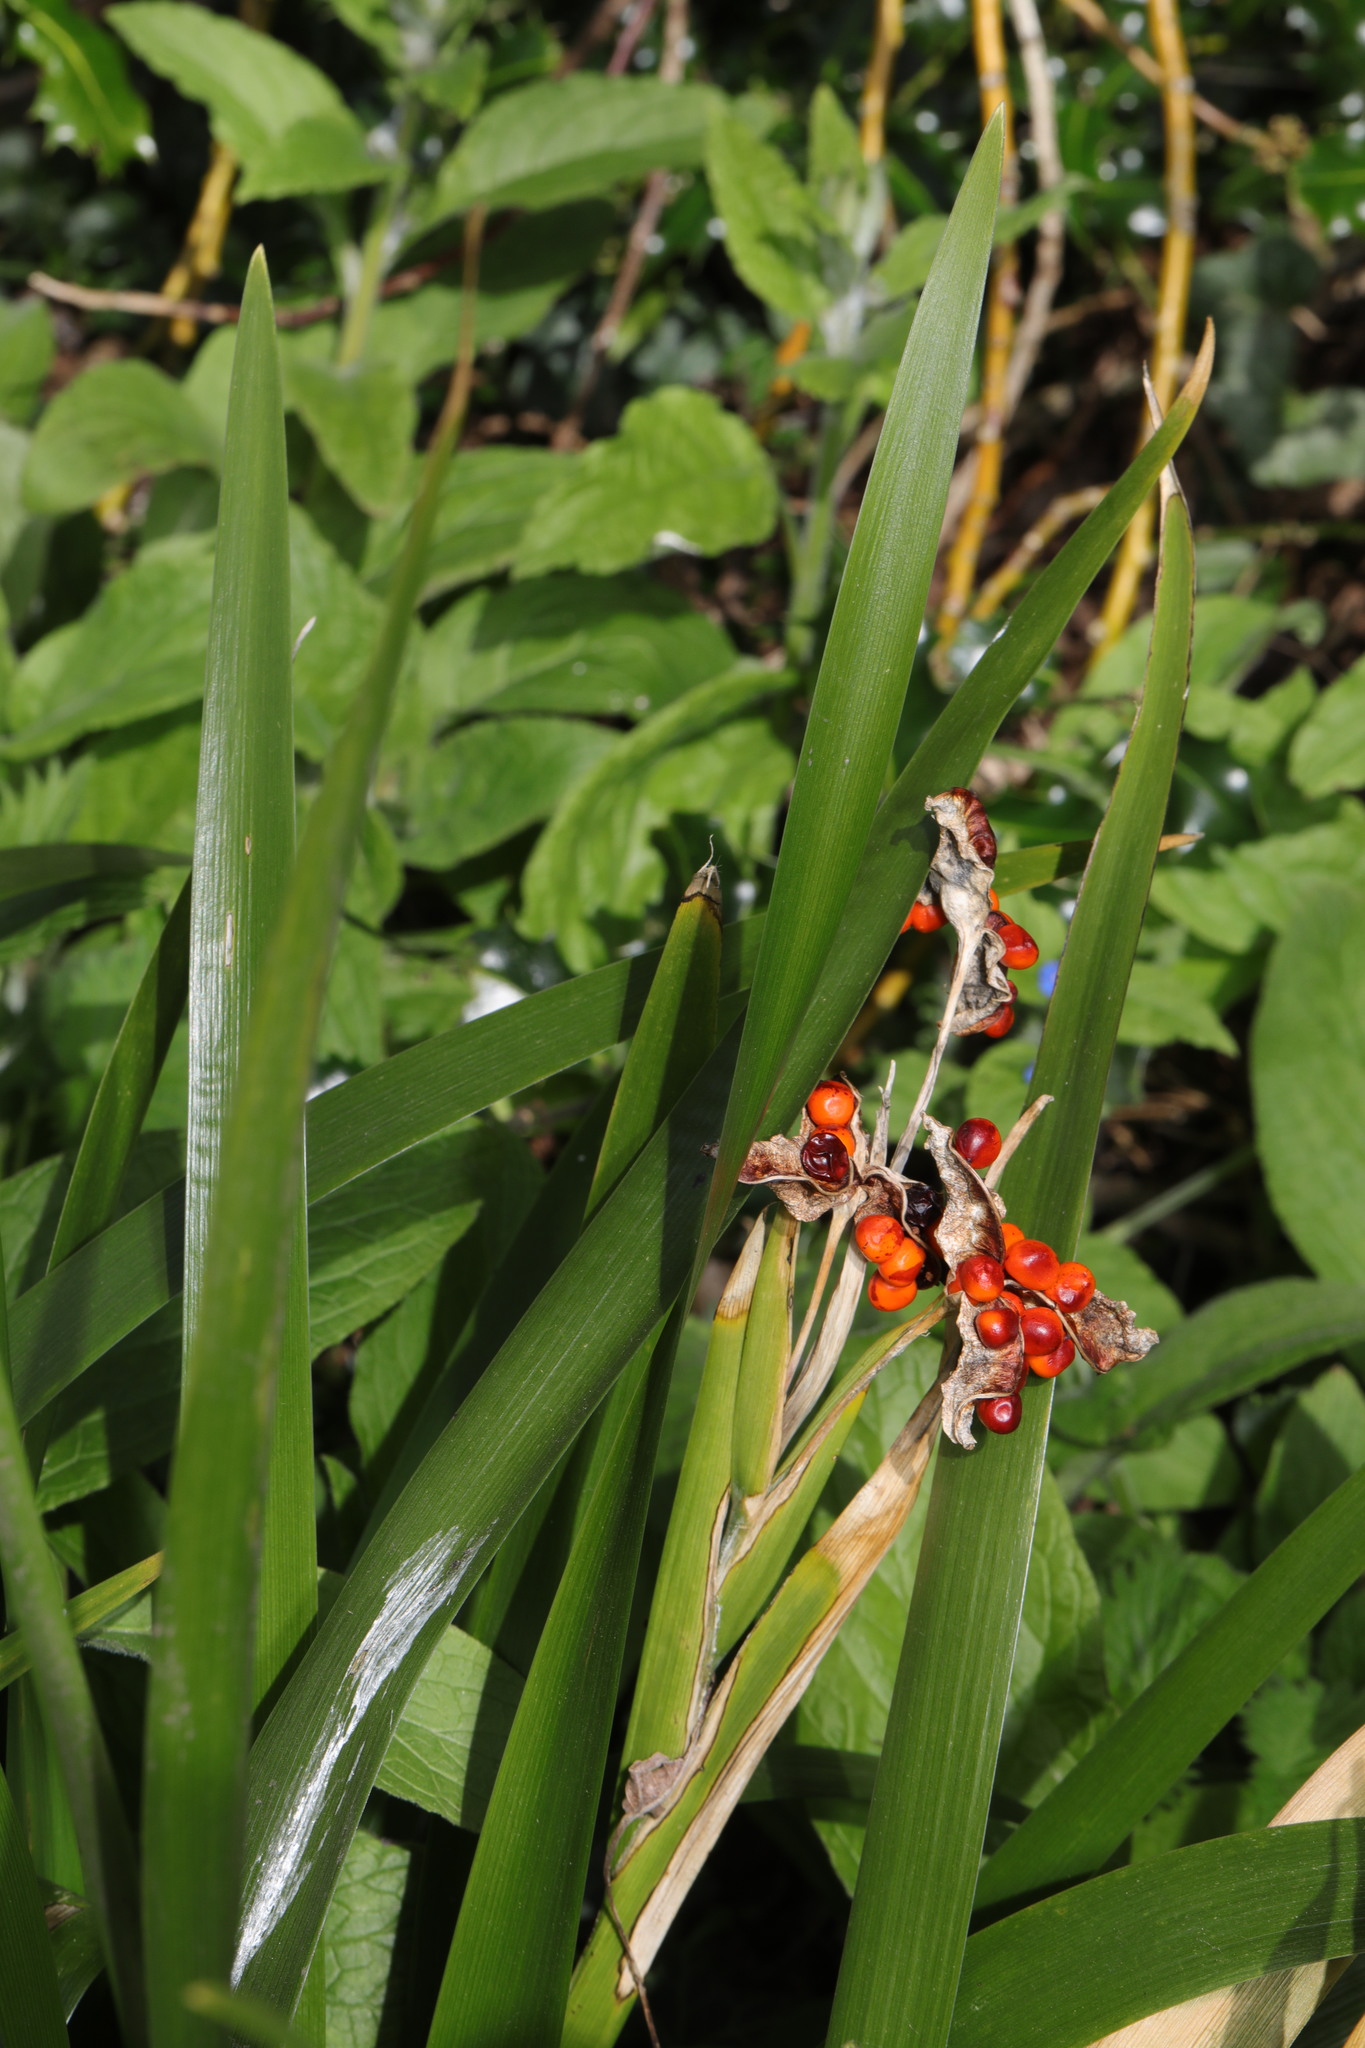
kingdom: Plantae
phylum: Tracheophyta
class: Liliopsida
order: Asparagales
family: Iridaceae
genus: Iris
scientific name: Iris foetidissima
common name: Stinking iris
